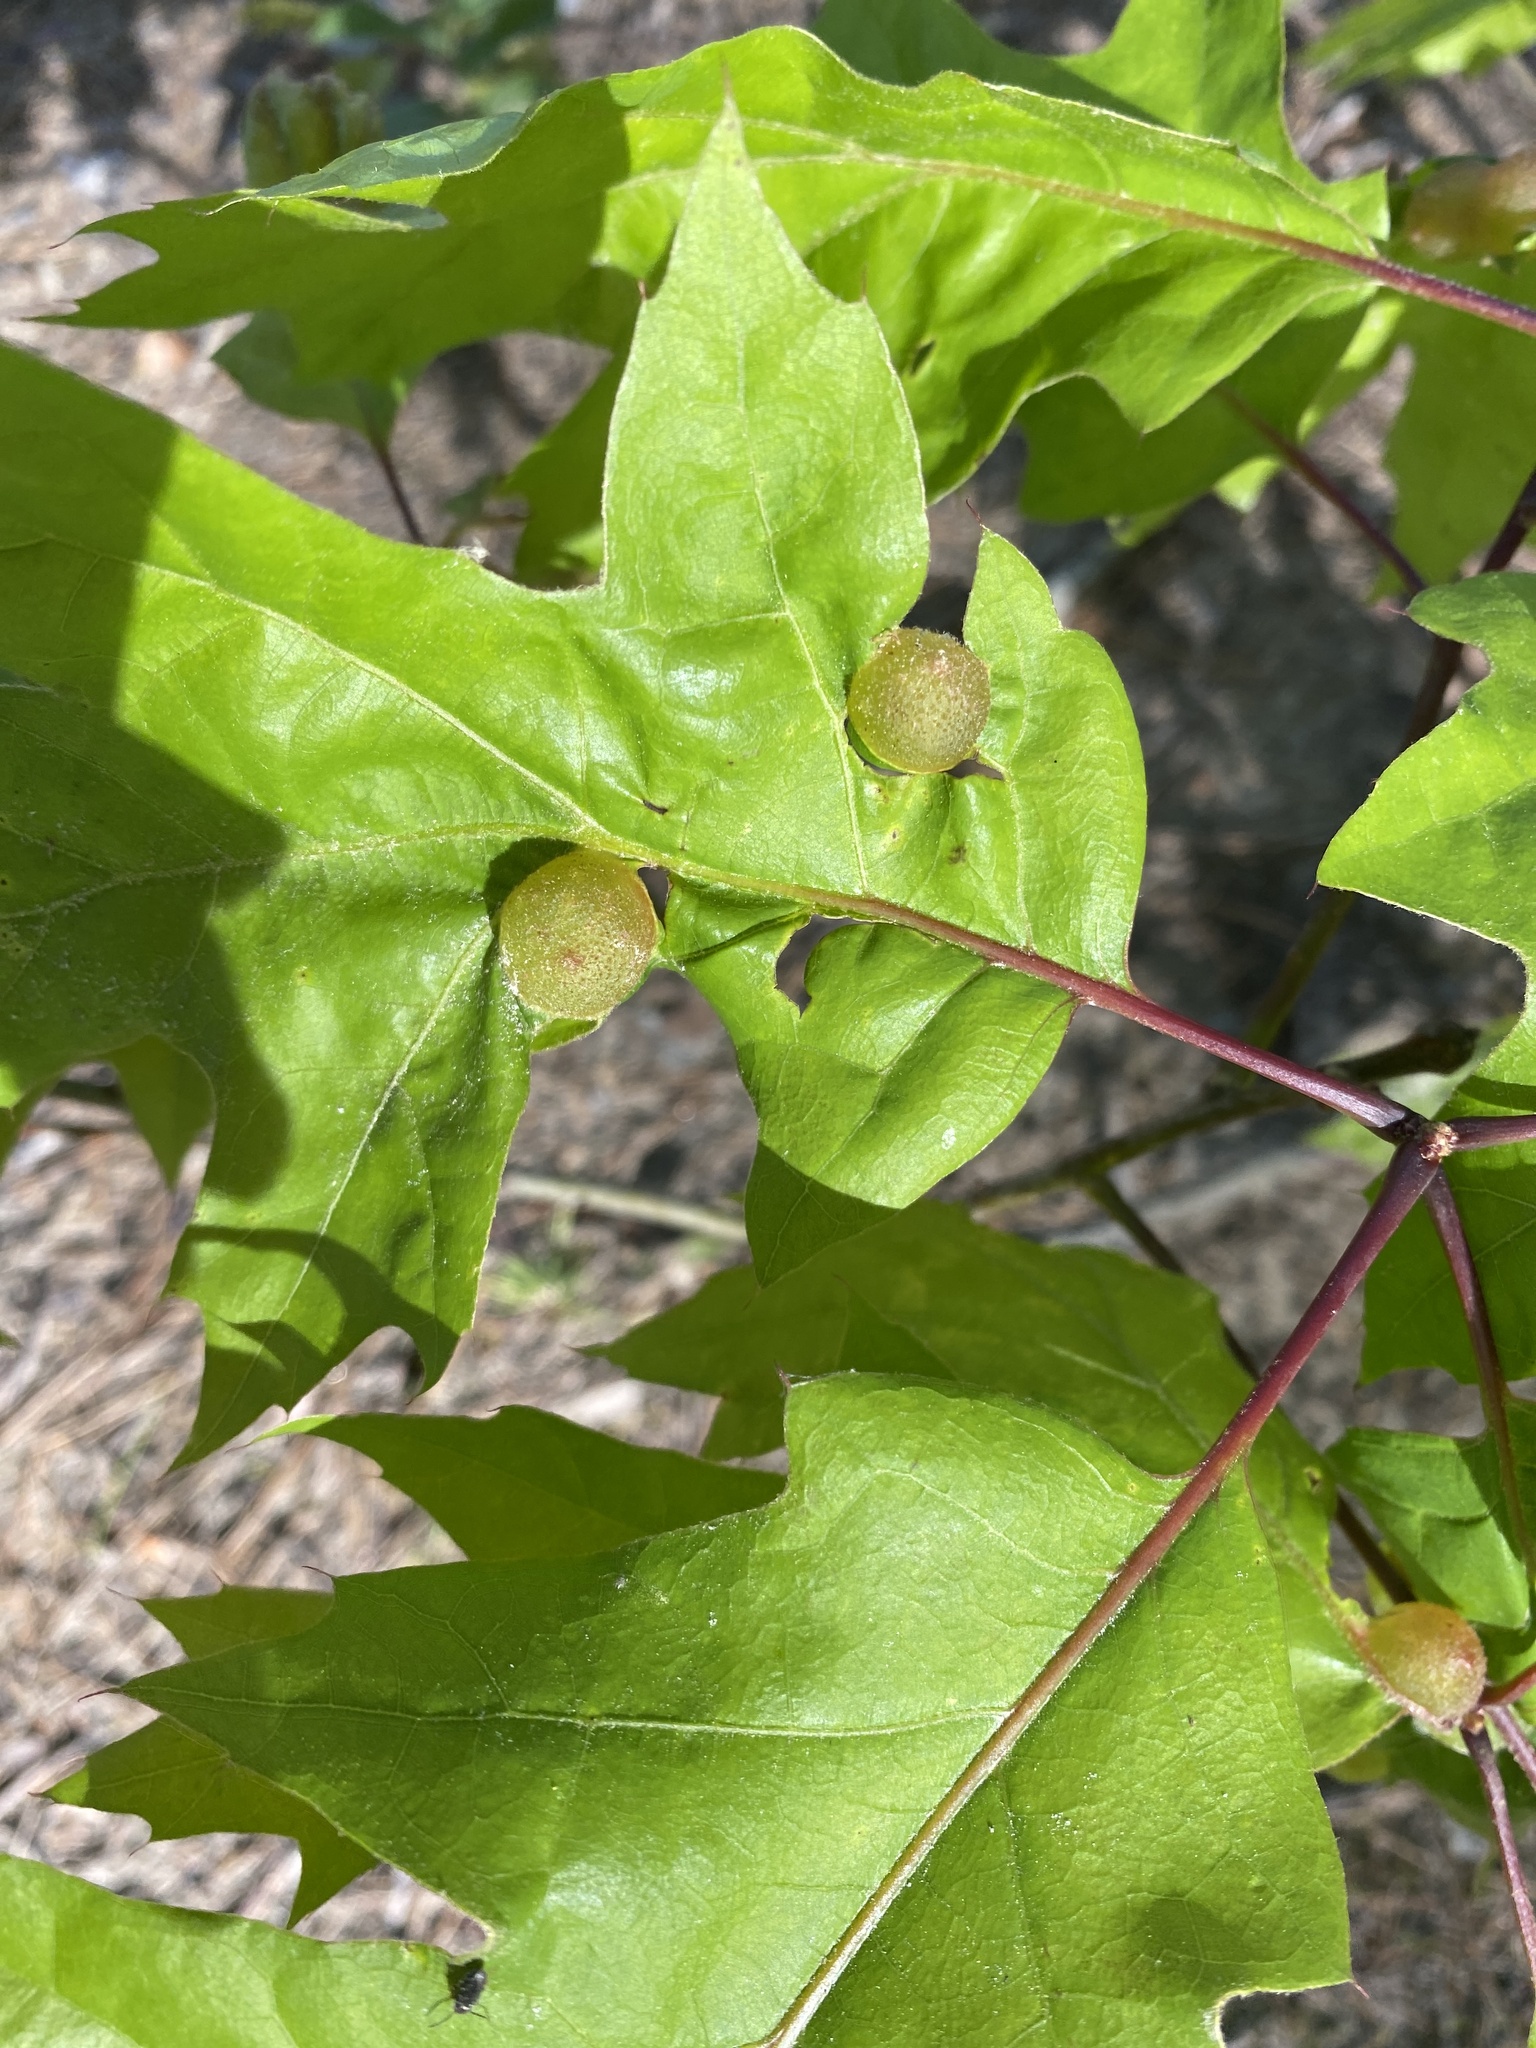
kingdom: Animalia
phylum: Arthropoda
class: Insecta
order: Hymenoptera
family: Cynipidae
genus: Dryocosmus
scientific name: Dryocosmus quercuspalustris
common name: Succulent oak gall wasp
